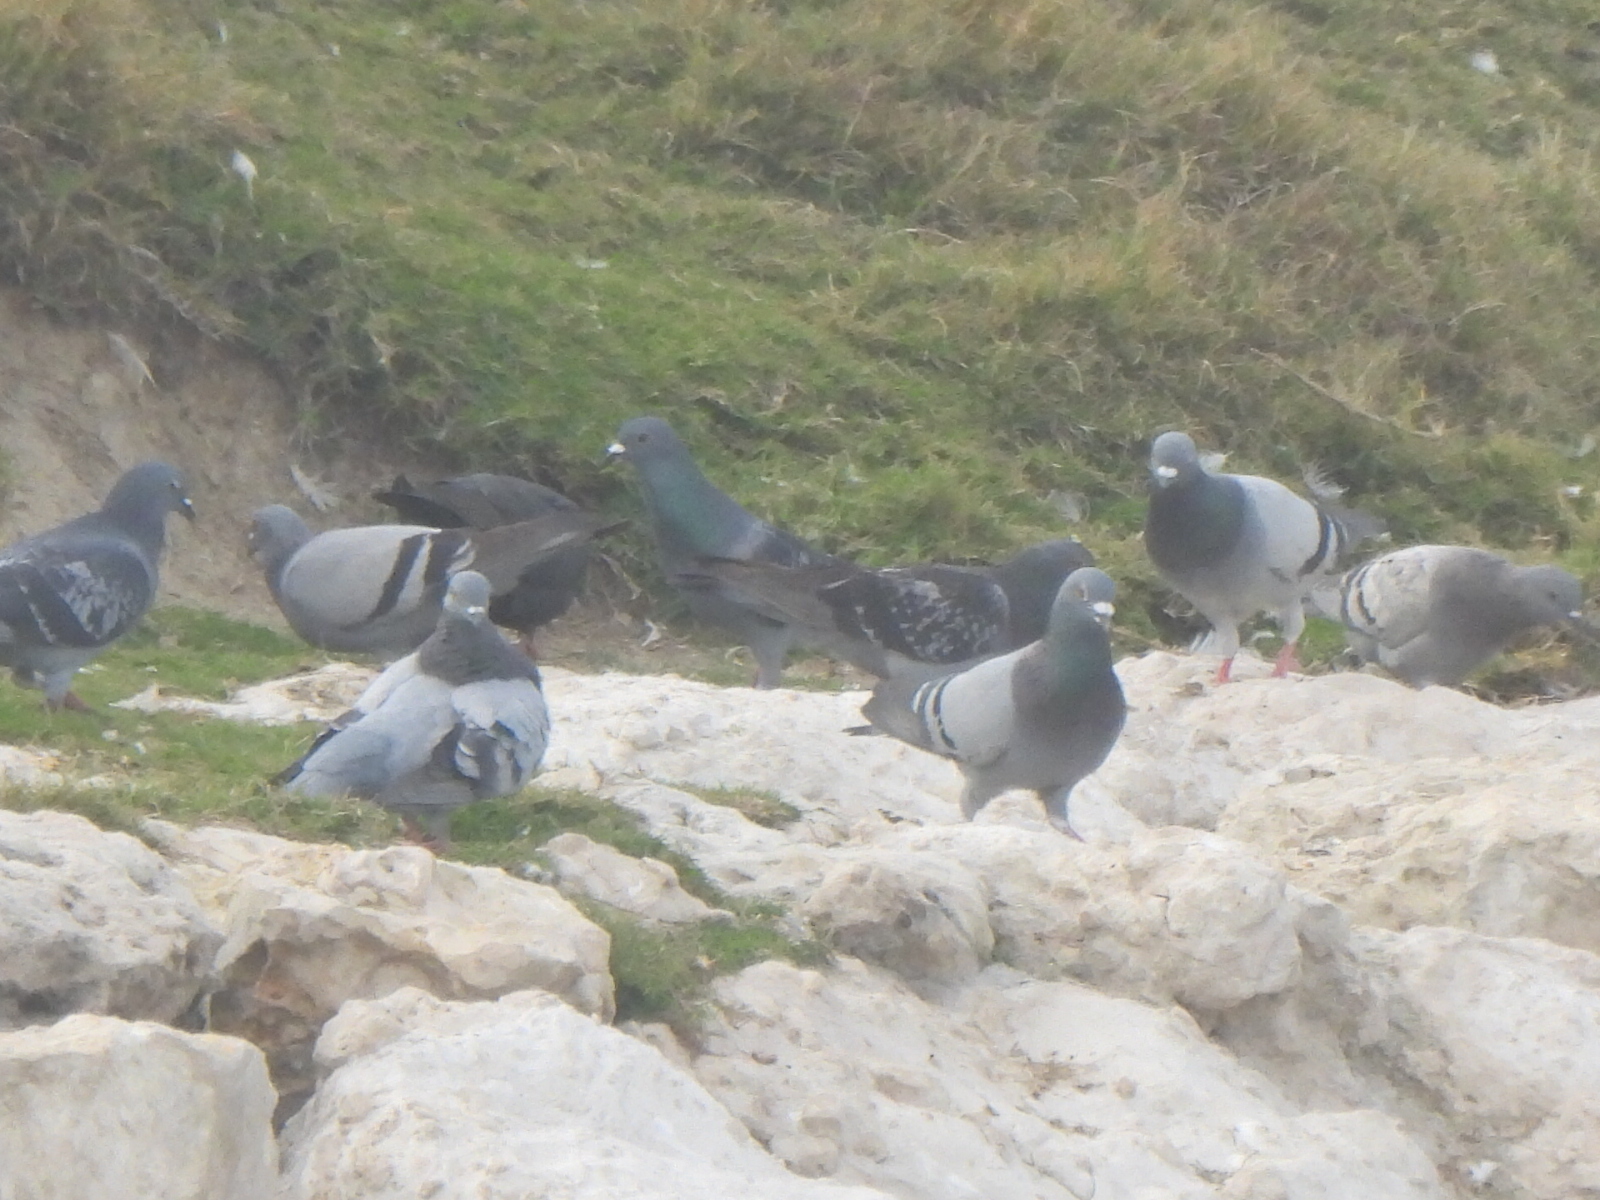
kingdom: Animalia
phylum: Chordata
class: Aves
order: Columbiformes
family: Columbidae
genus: Columba
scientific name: Columba livia
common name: Rock pigeon
